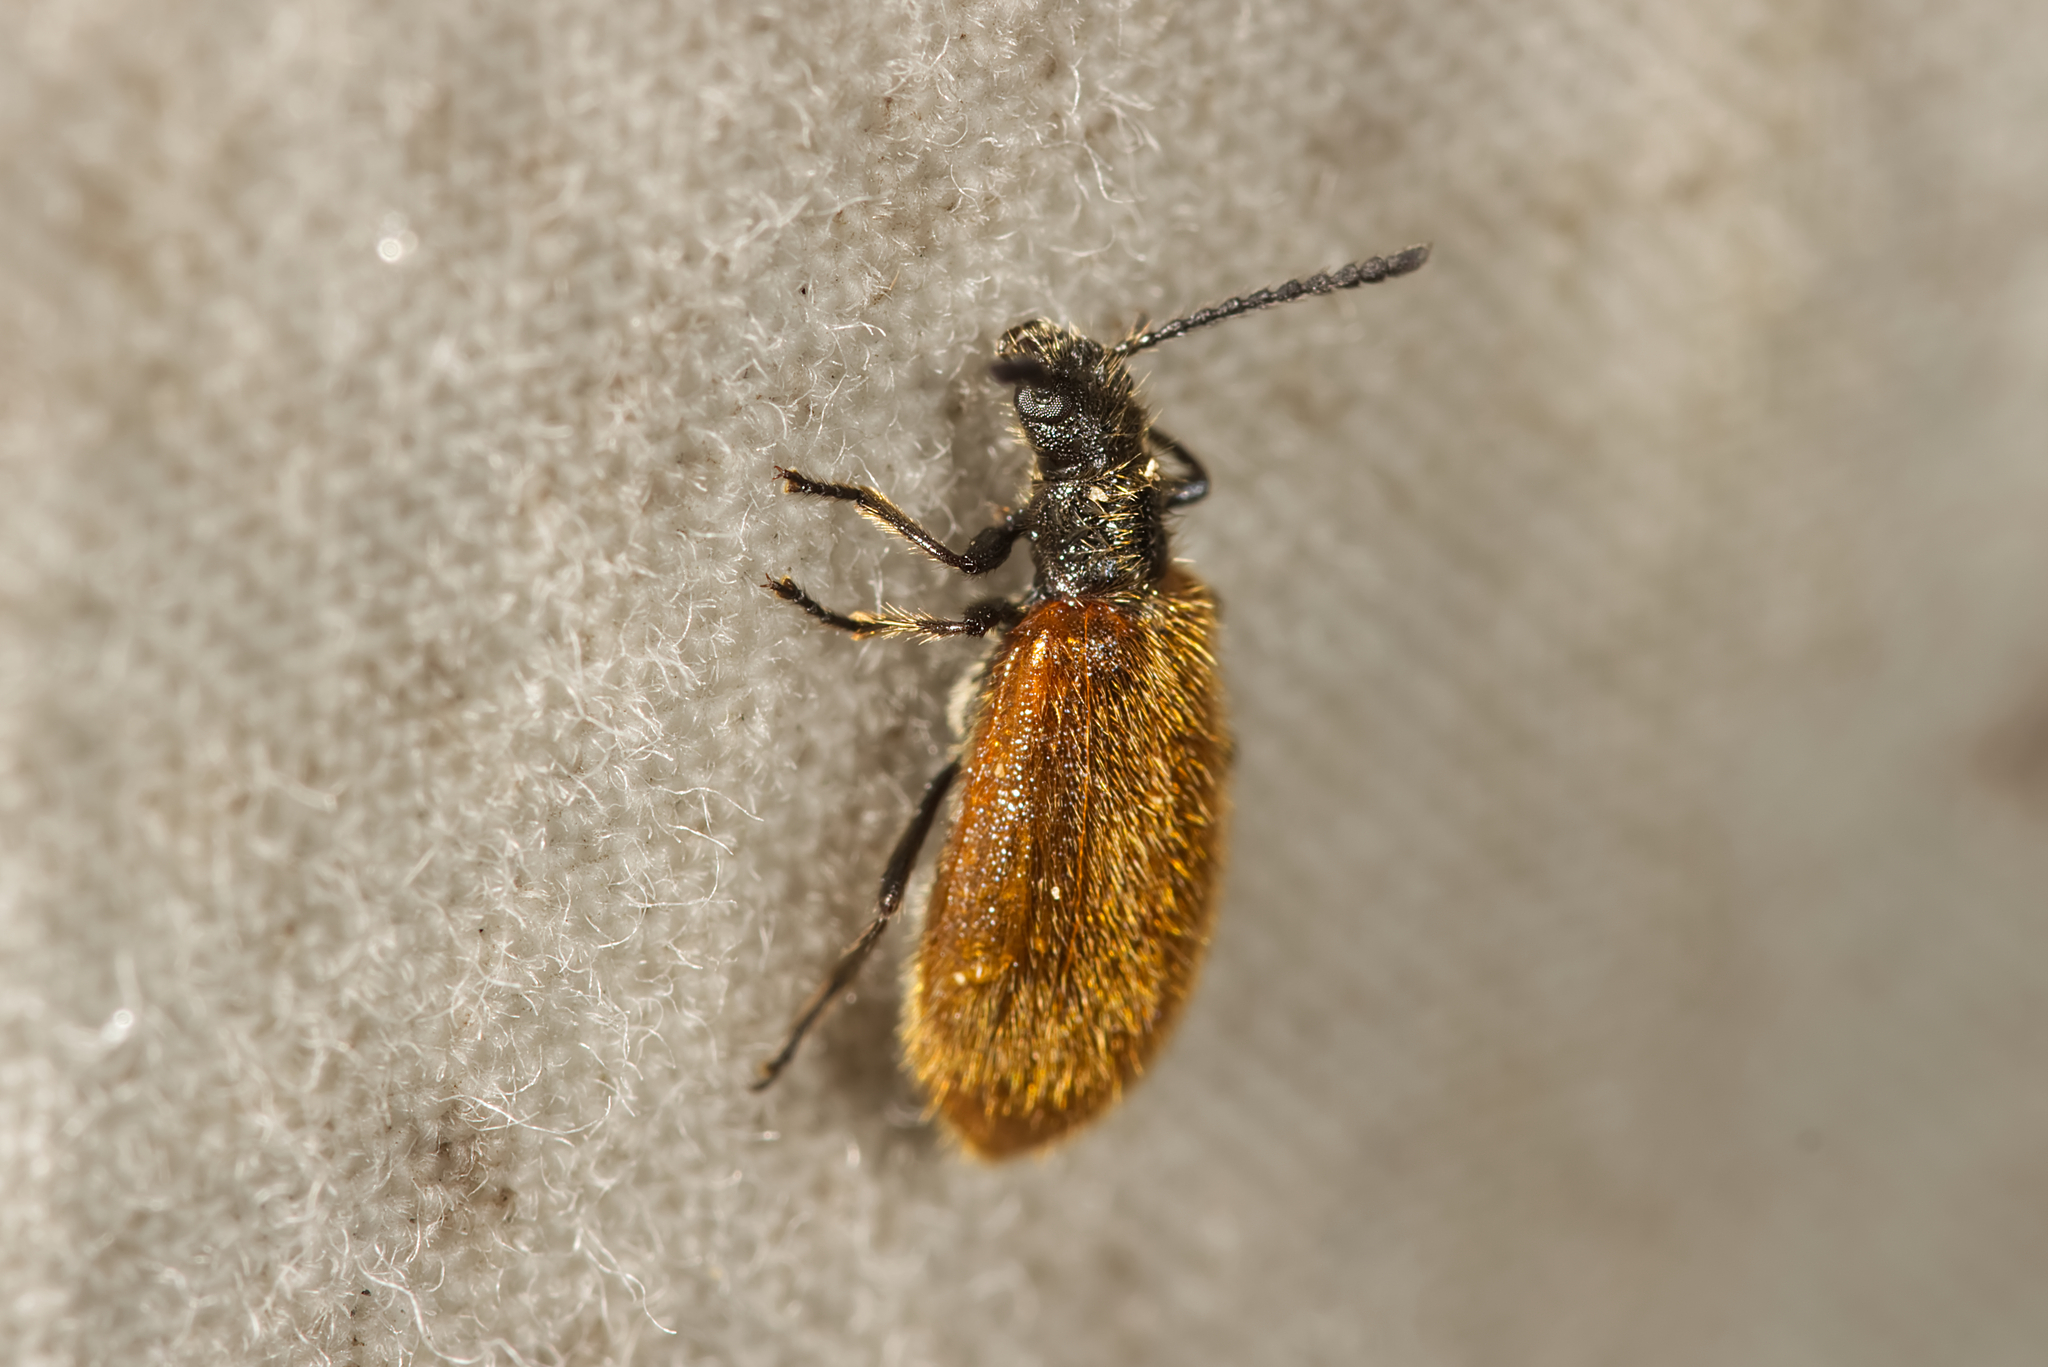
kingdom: Animalia
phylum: Arthropoda
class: Insecta
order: Coleoptera
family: Tenebrionidae
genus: Lagria
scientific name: Lagria hirta
